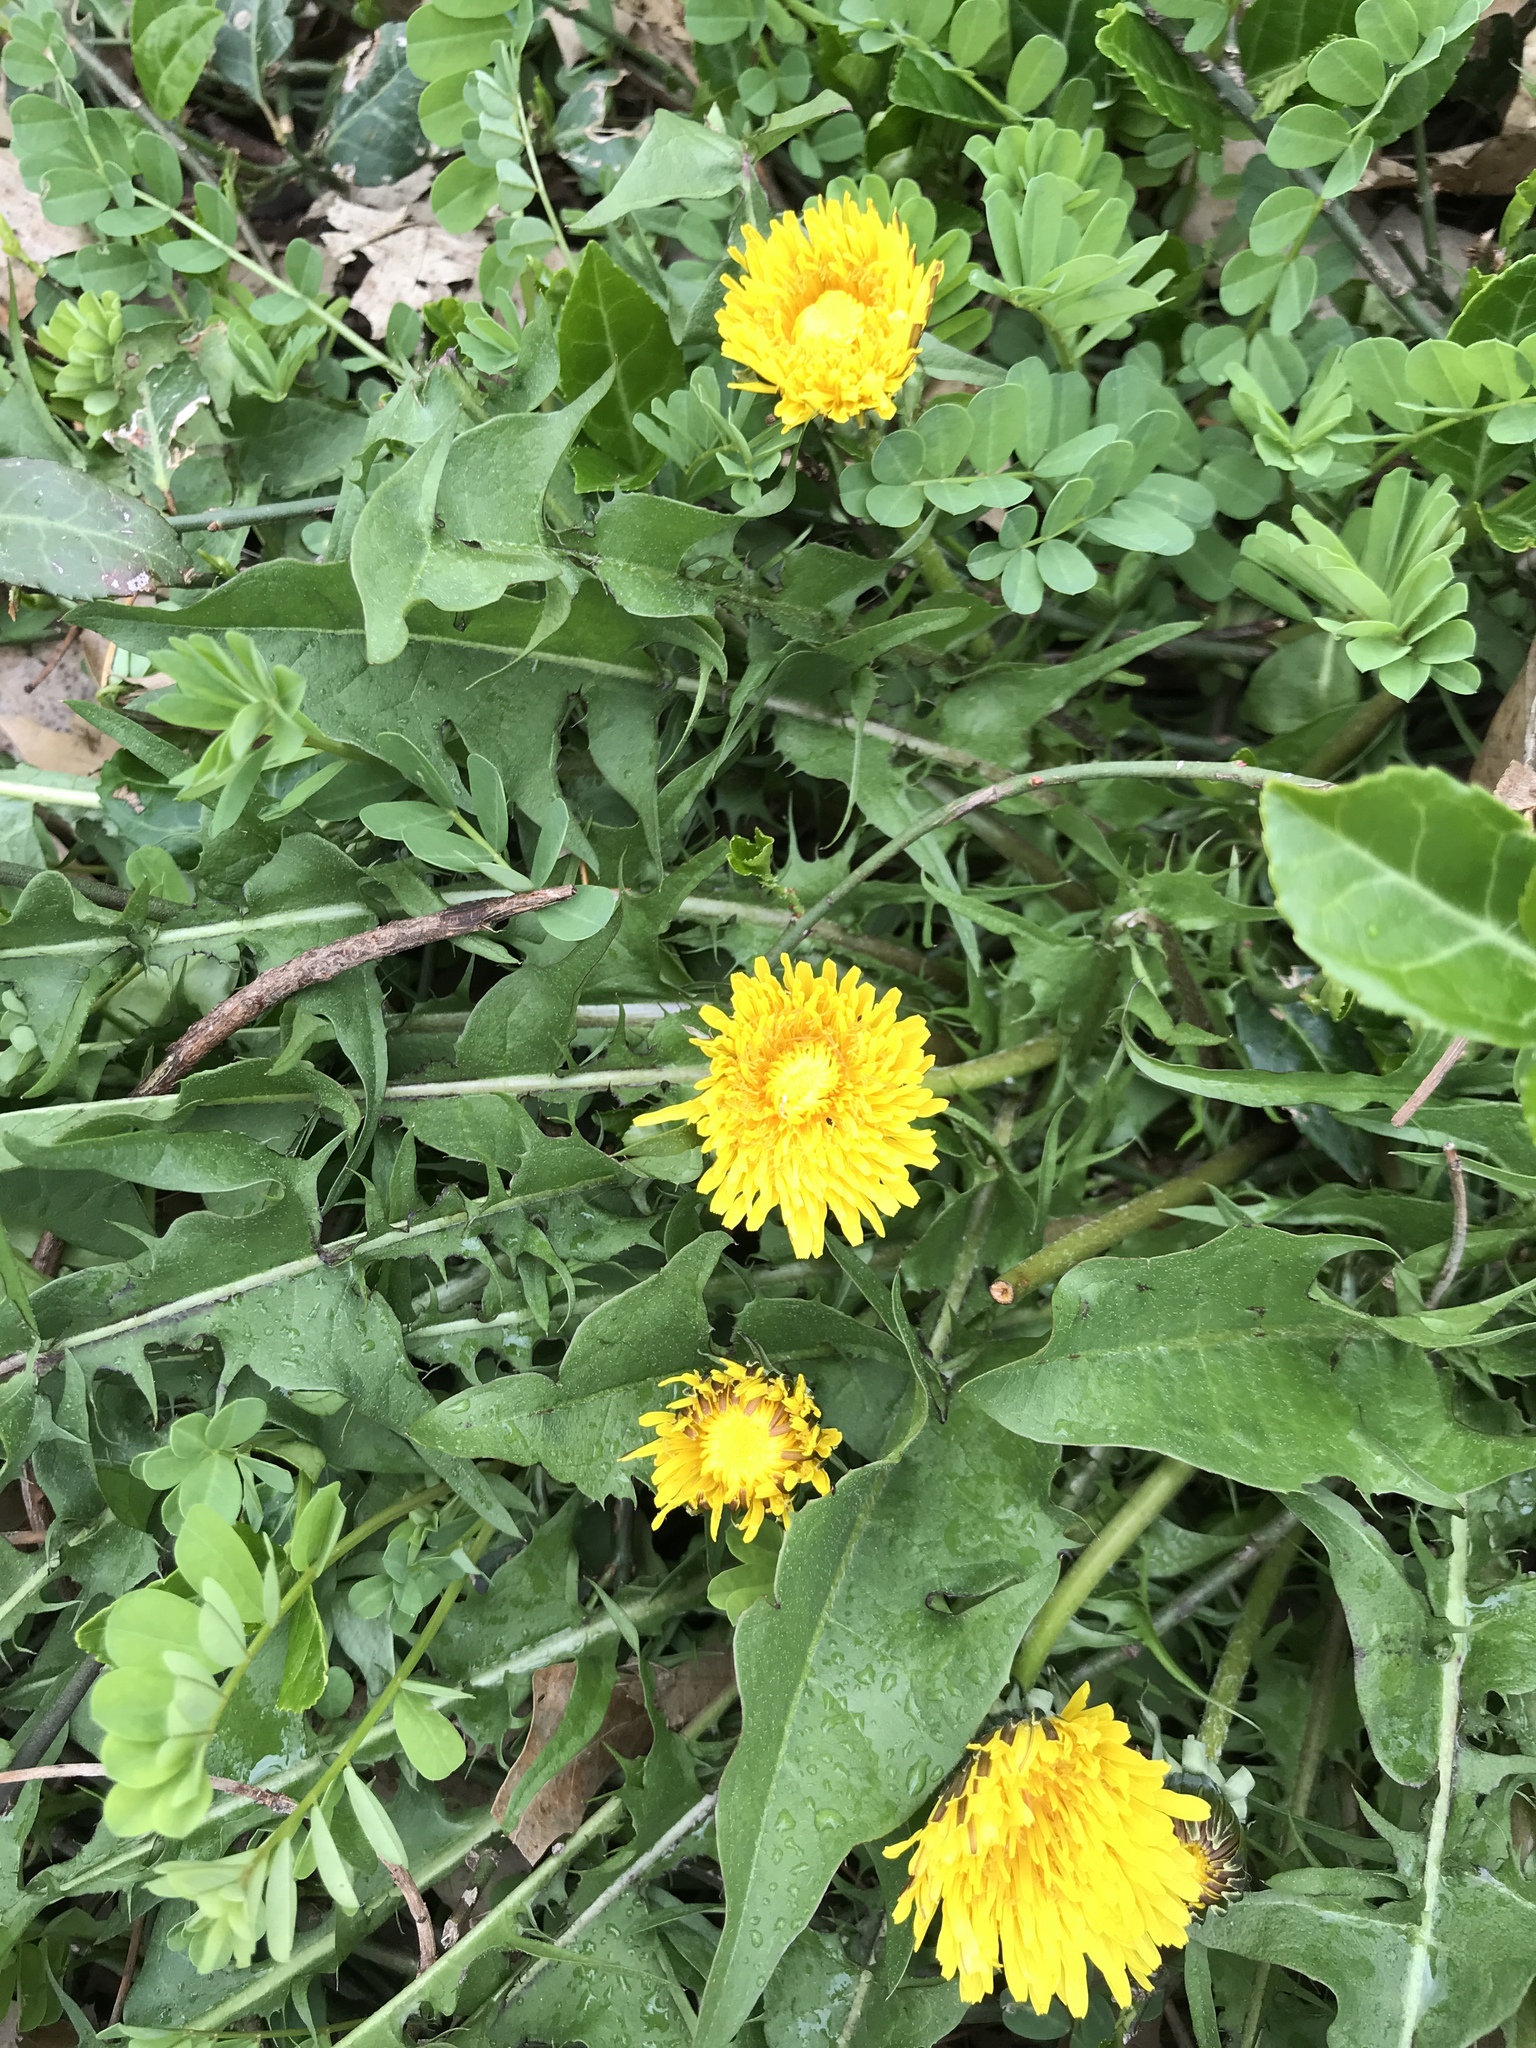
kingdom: Plantae
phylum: Tracheophyta
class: Magnoliopsida
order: Asterales
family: Asteraceae
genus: Taraxacum
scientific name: Taraxacum
